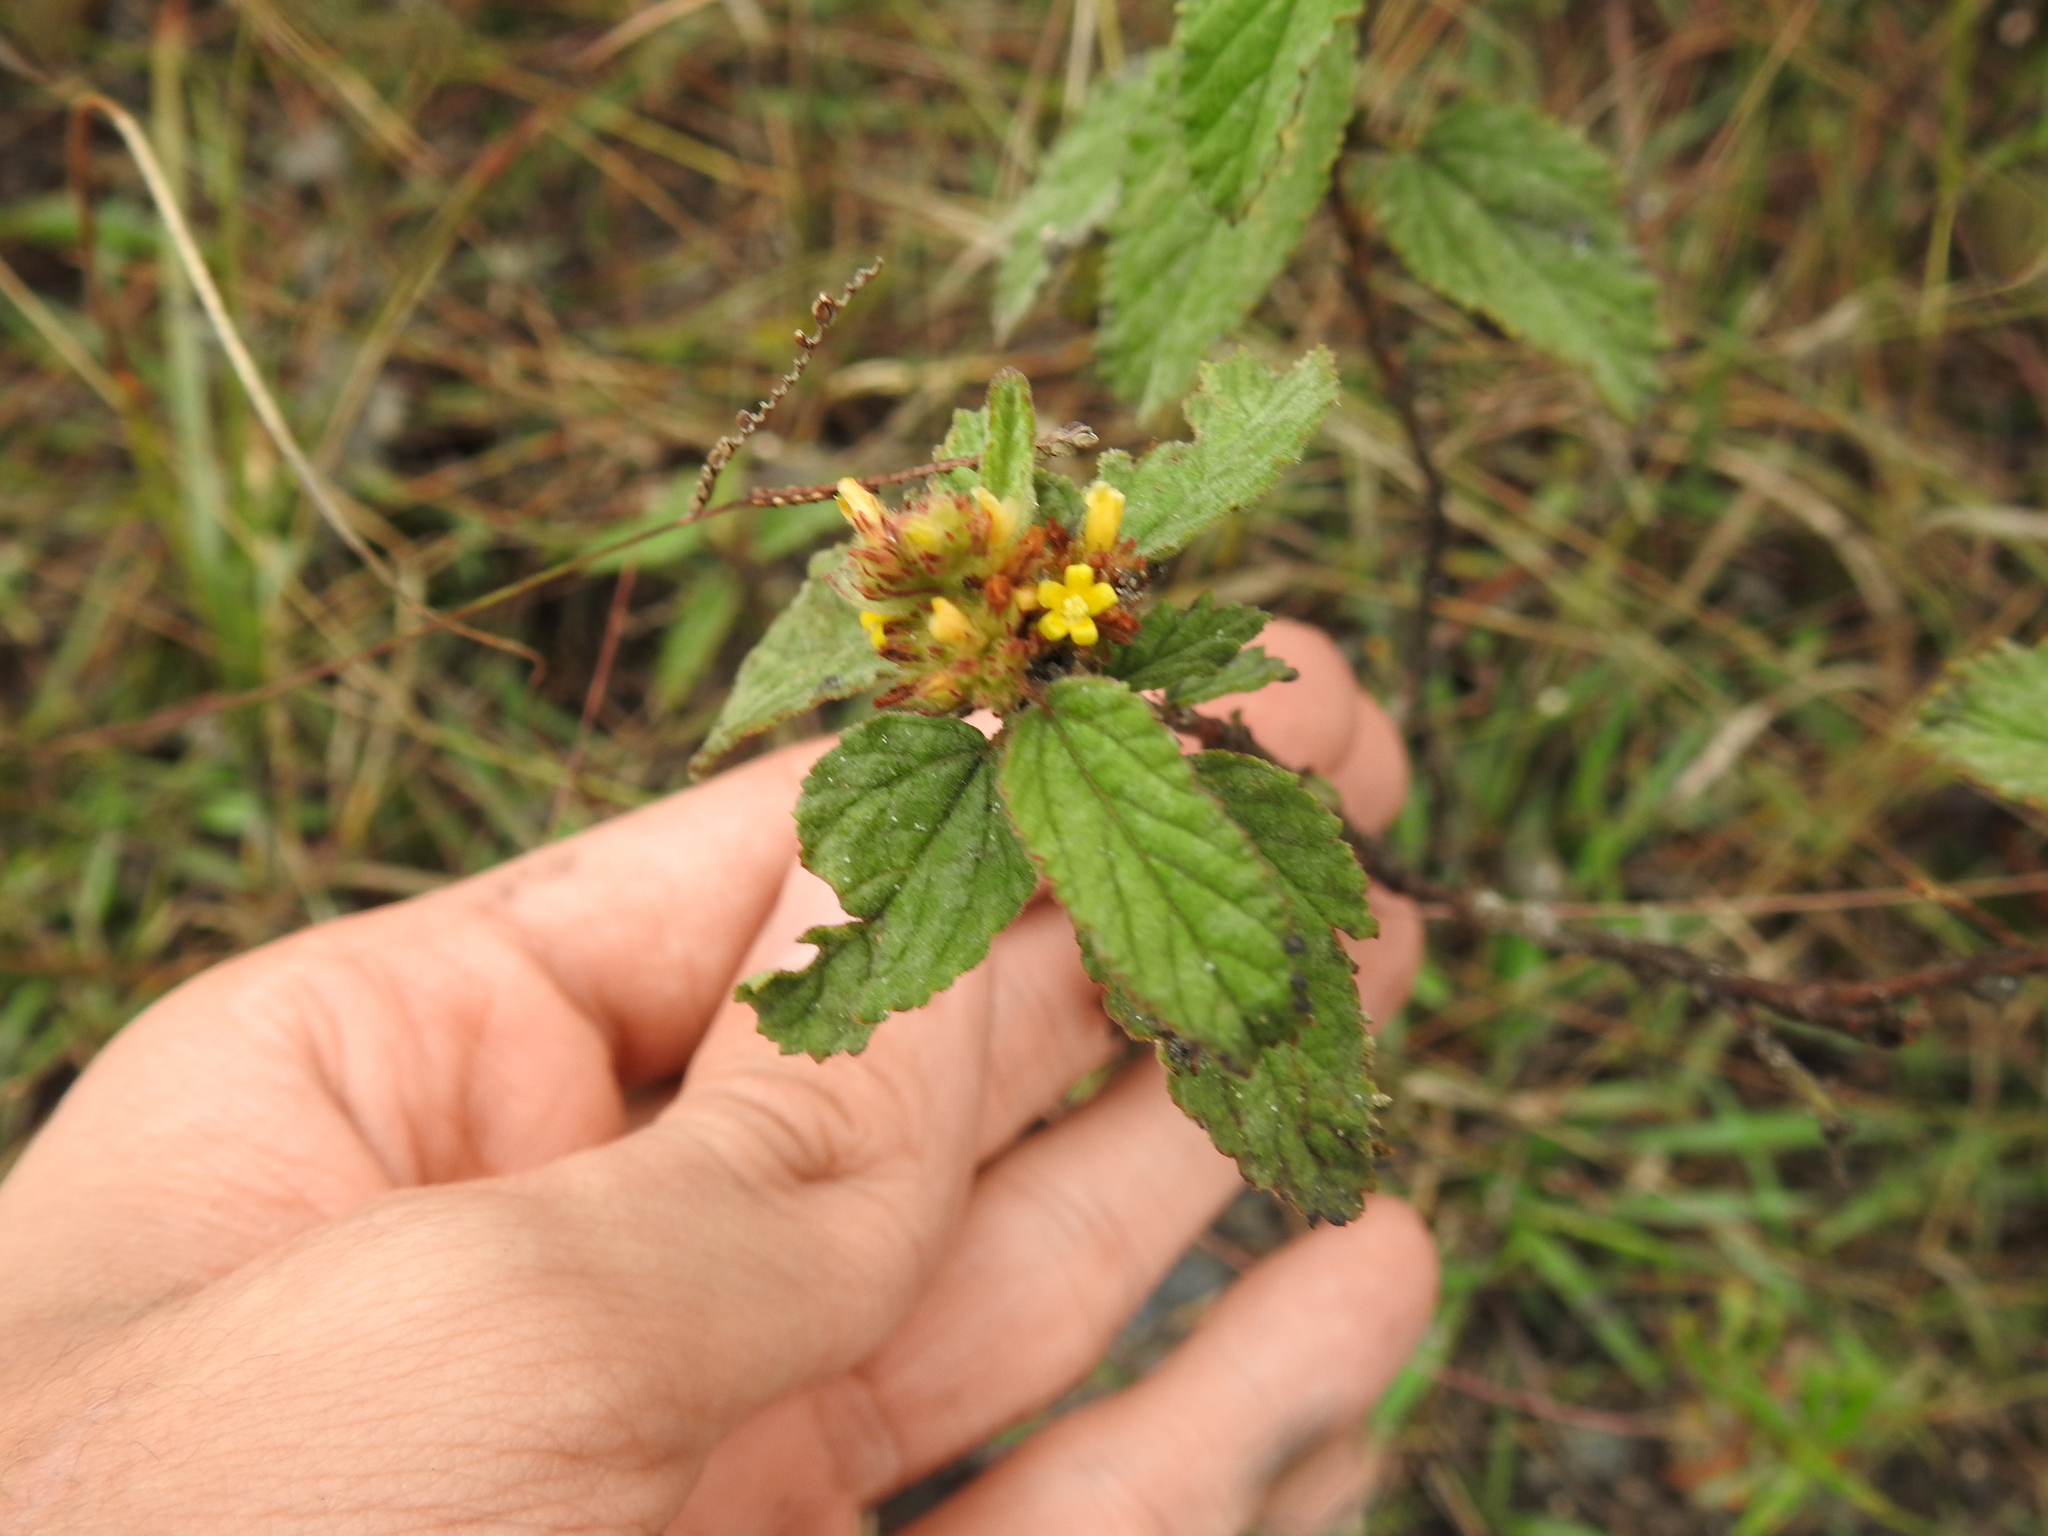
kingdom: Plantae
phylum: Tracheophyta
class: Magnoliopsida
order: Malvales
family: Malvaceae
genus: Waltheria
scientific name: Waltheria indica
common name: Leather-coat
